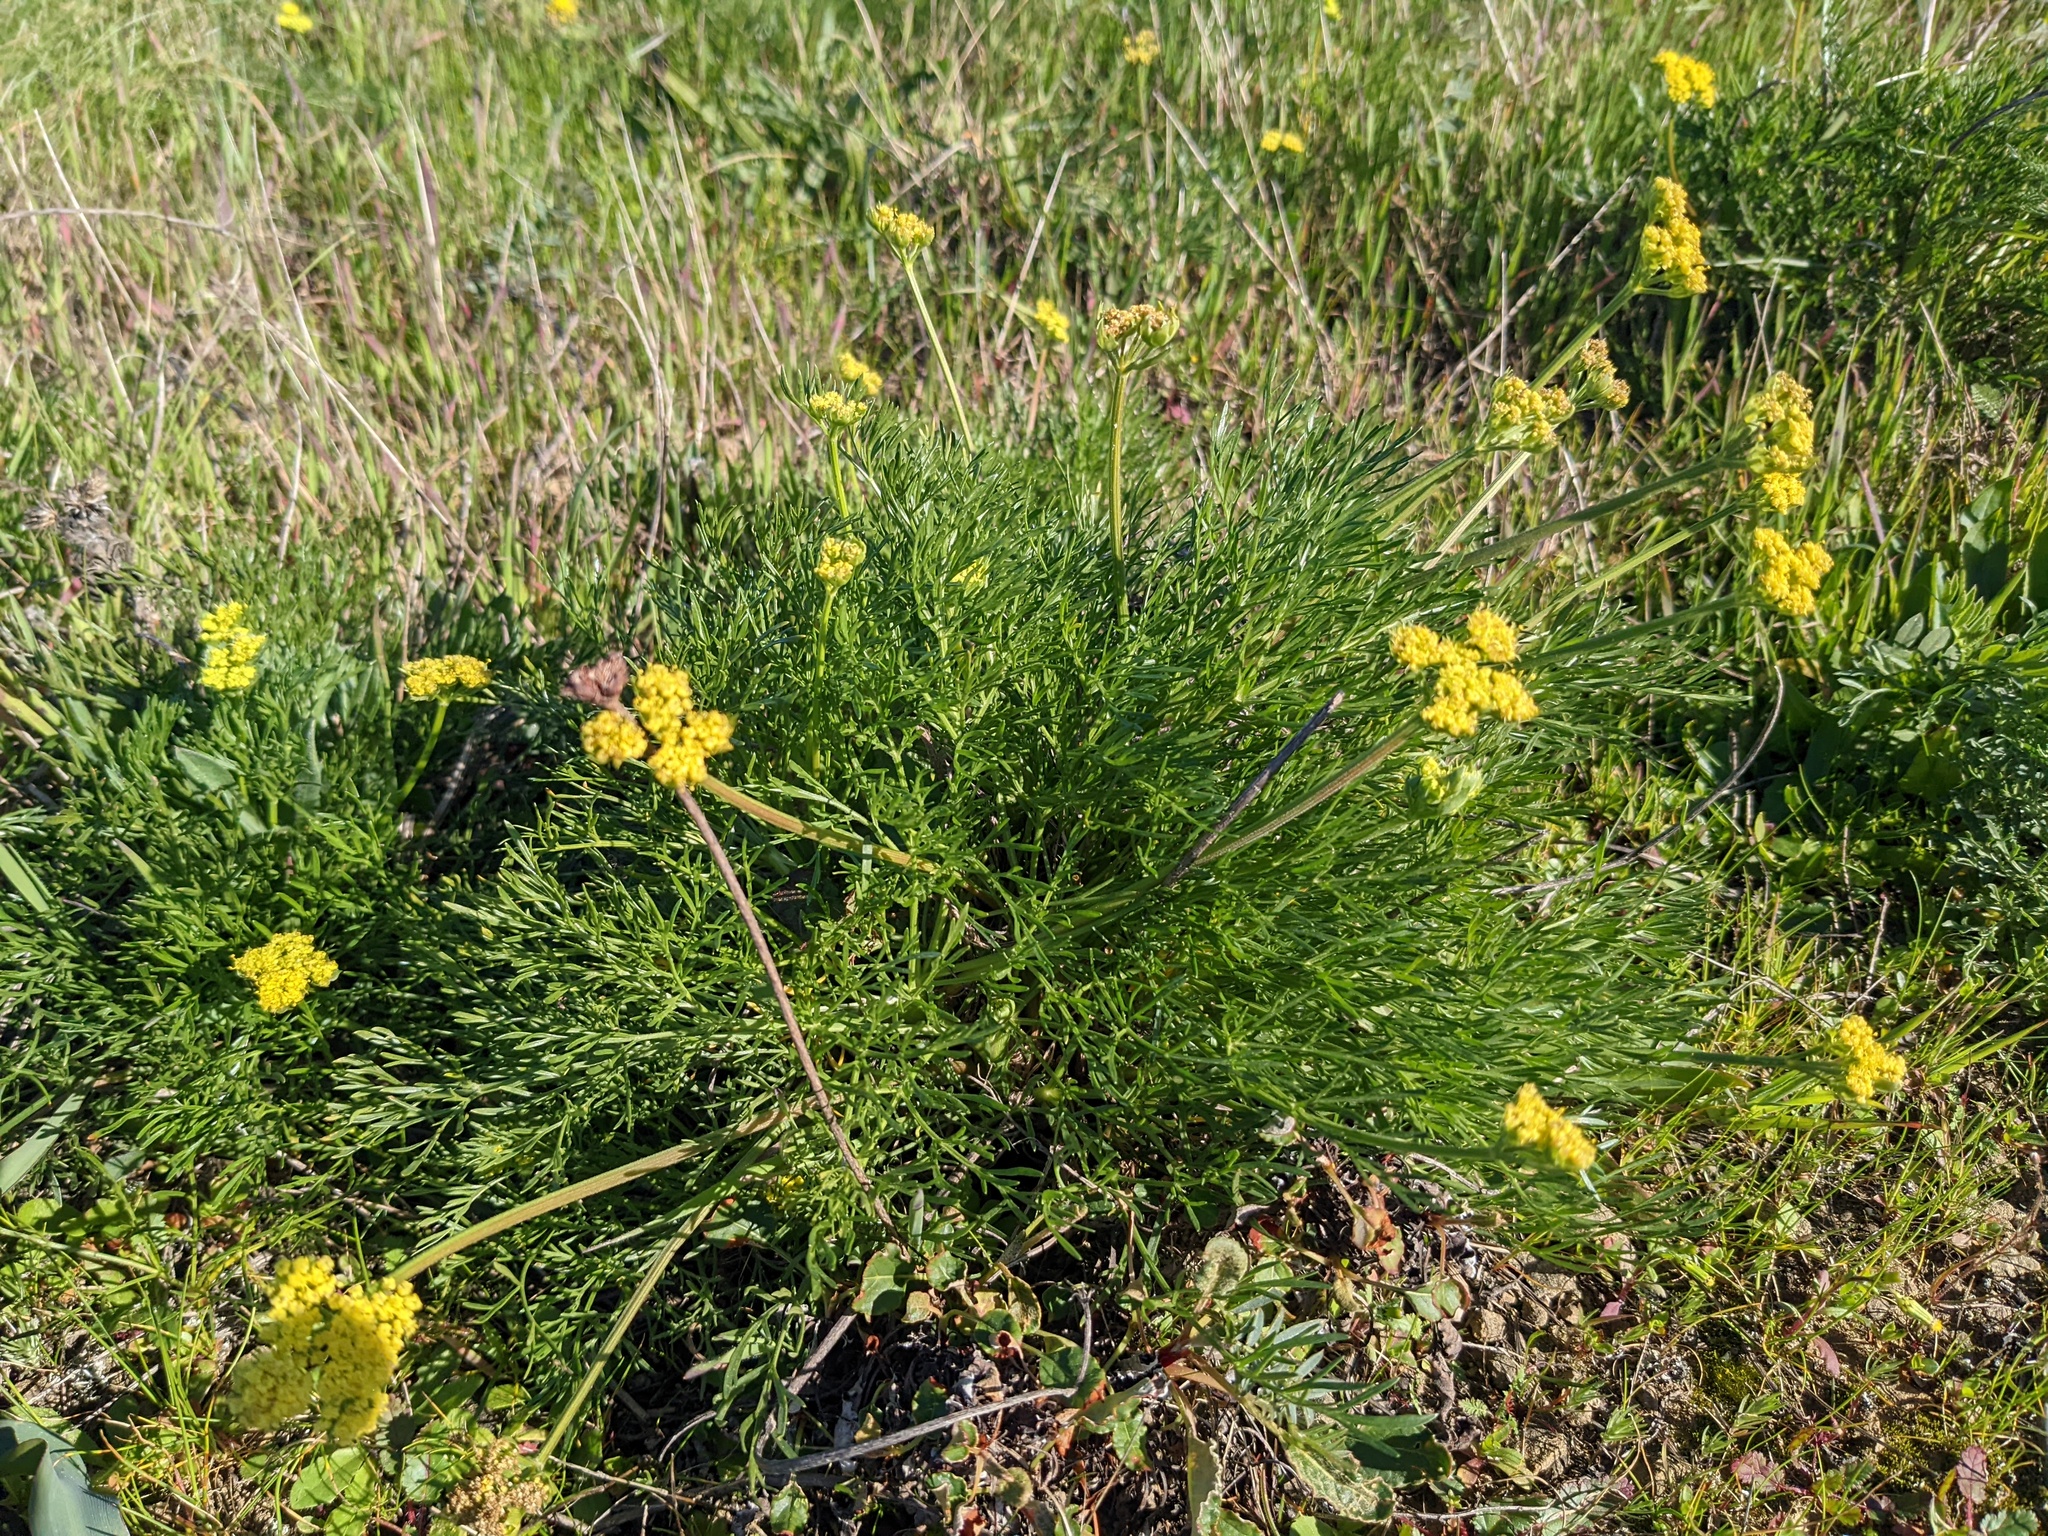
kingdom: Plantae
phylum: Tracheophyta
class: Magnoliopsida
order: Apiales
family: Apiaceae
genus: Lomatium
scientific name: Lomatium caruifolium
